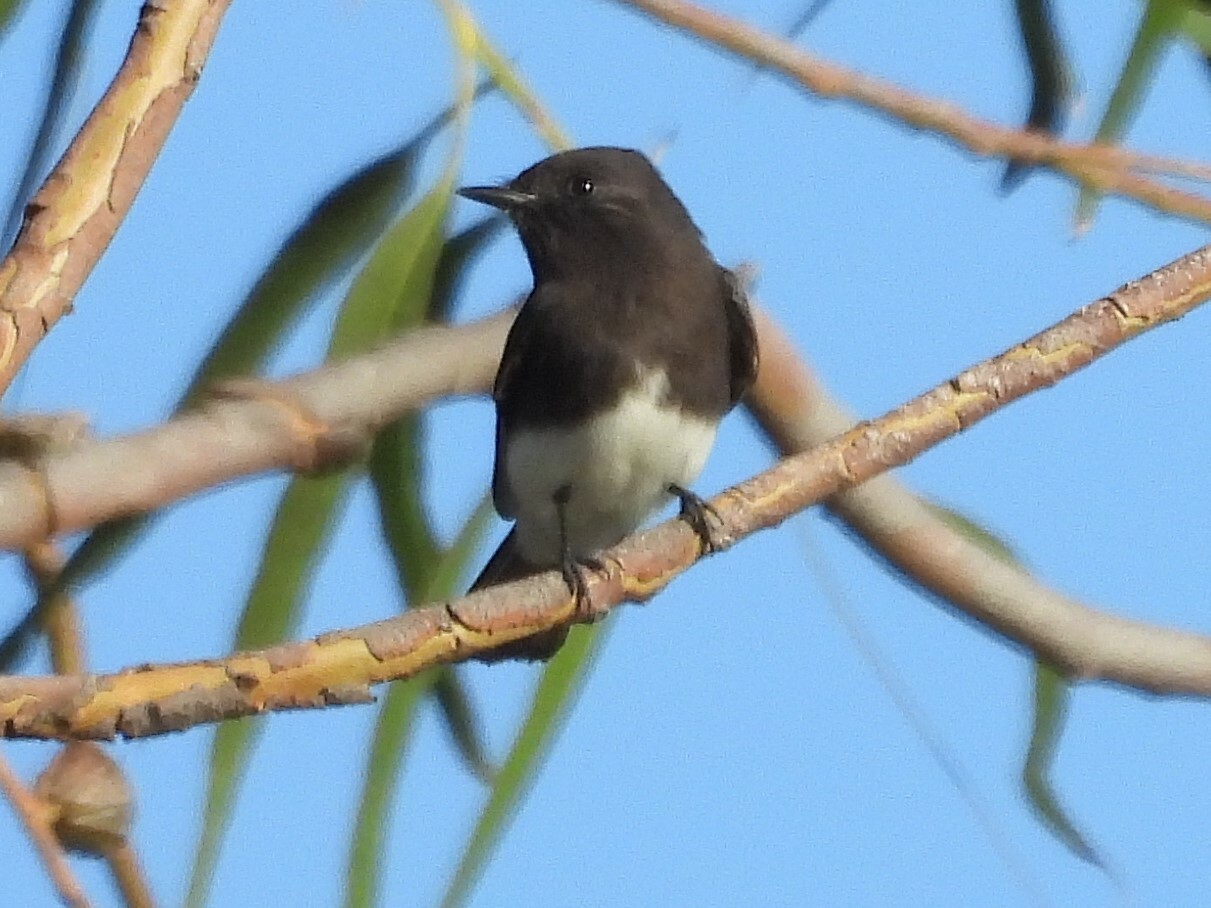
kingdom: Animalia
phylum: Chordata
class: Aves
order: Passeriformes
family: Tyrannidae
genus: Sayornis
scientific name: Sayornis nigricans
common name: Black phoebe
